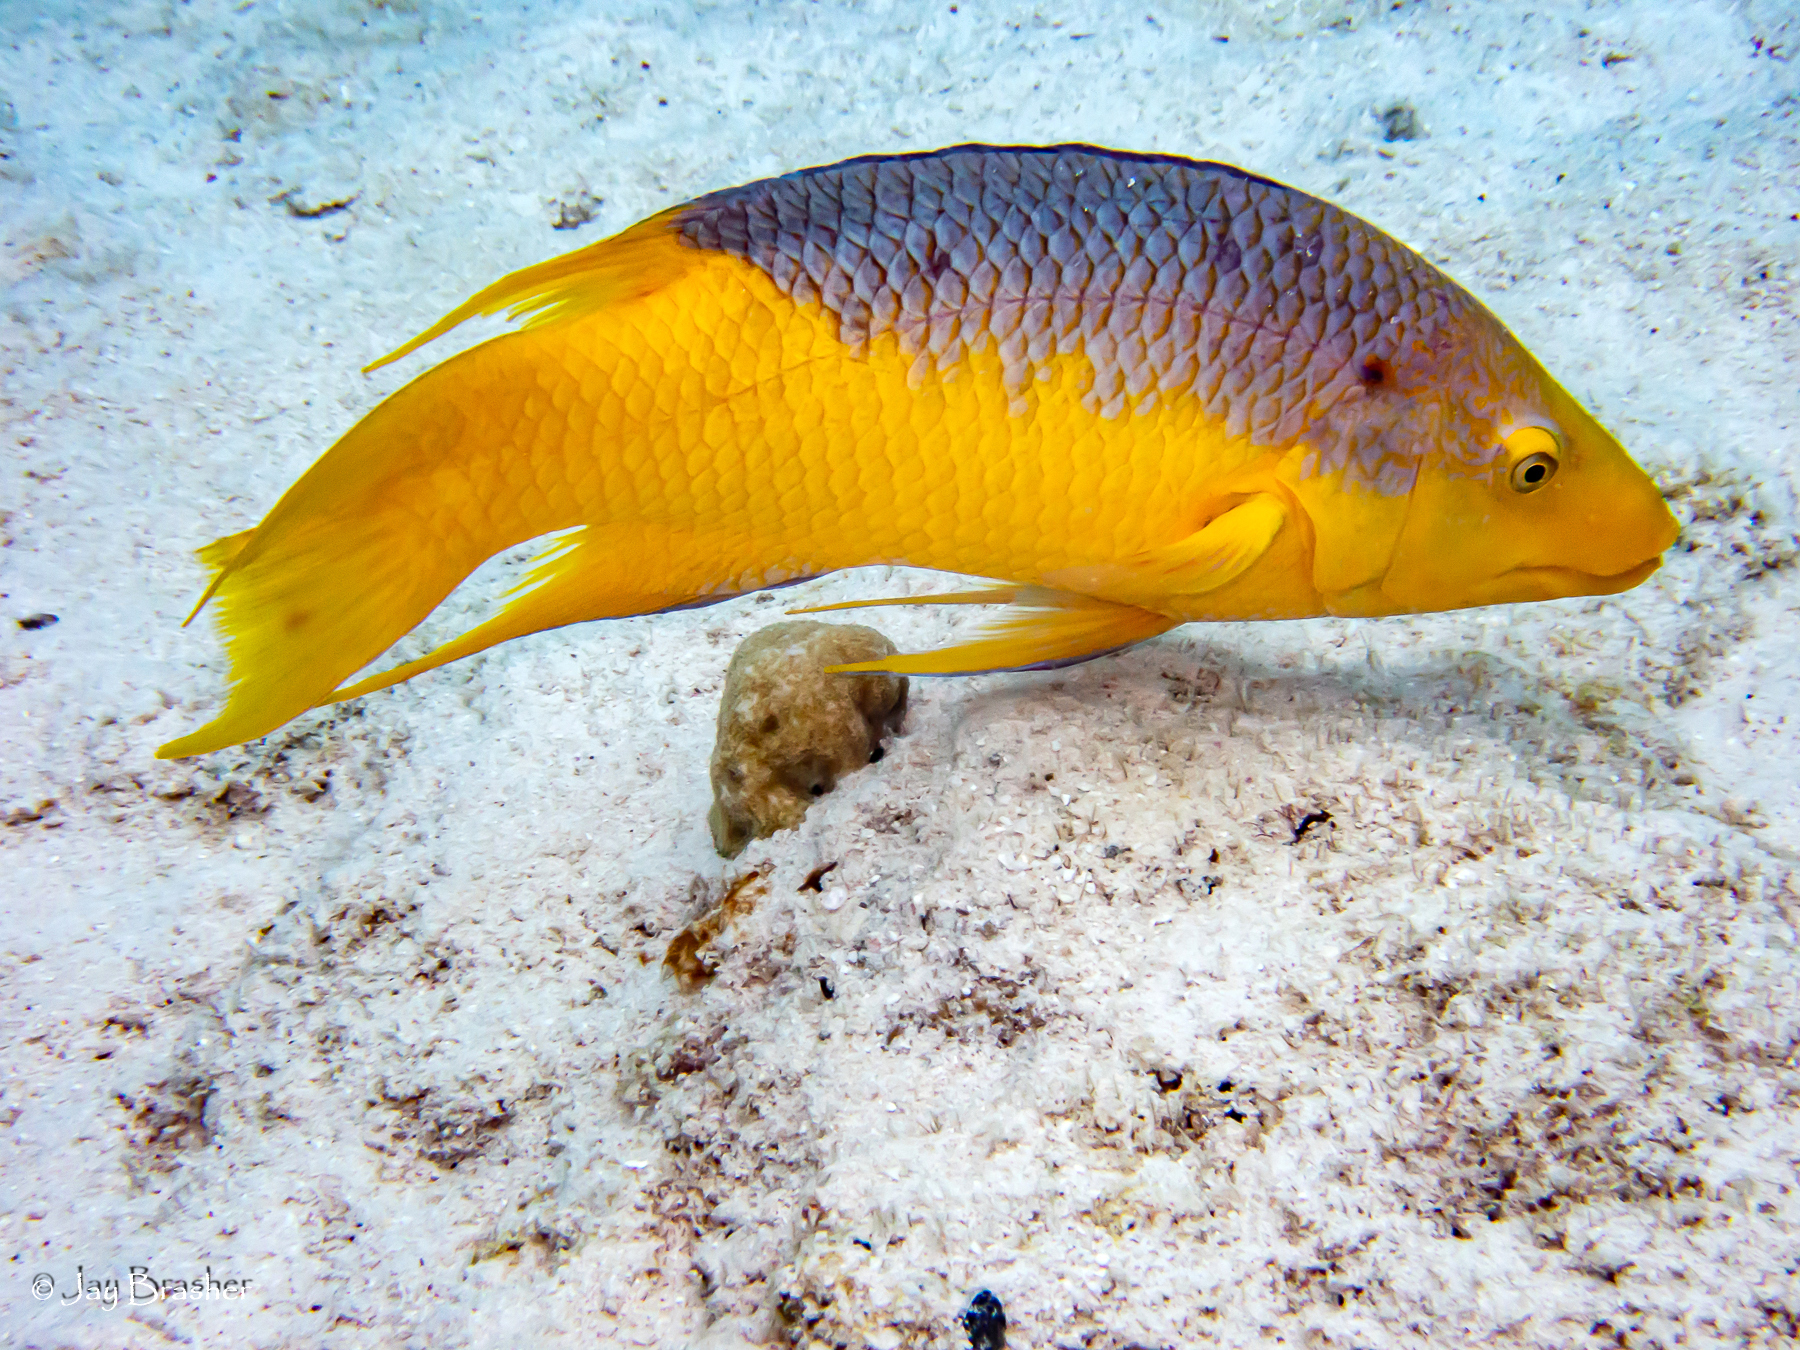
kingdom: Animalia
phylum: Chordata
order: Perciformes
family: Labridae
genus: Bodianus
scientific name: Bodianus rufus
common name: Spanish hogfish
